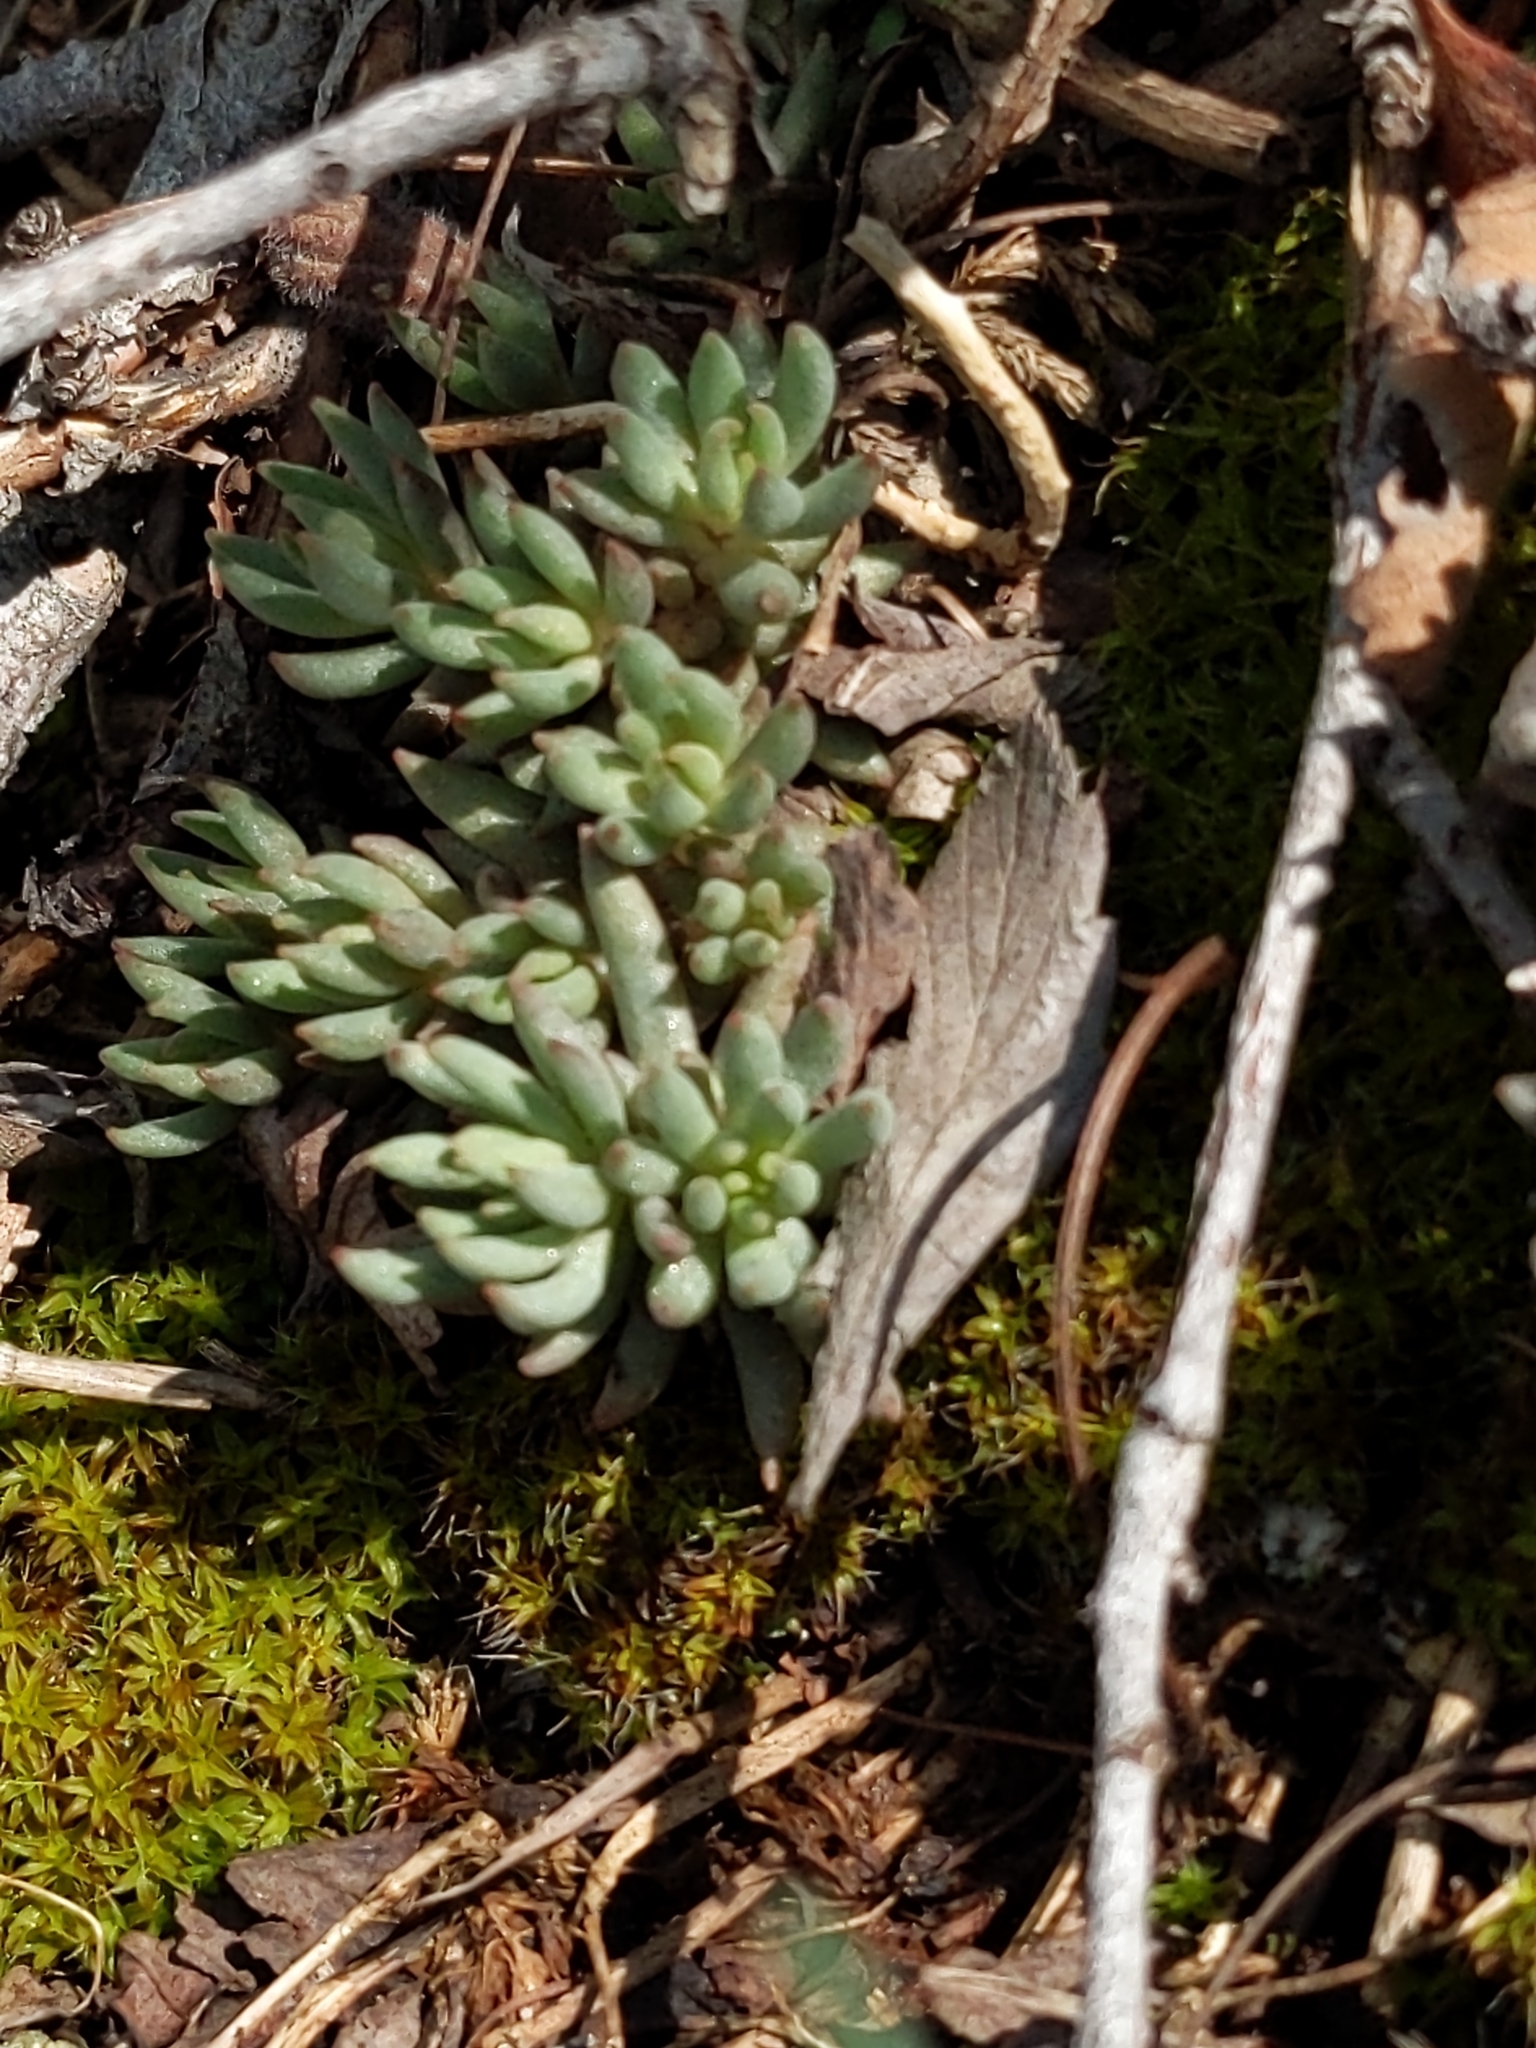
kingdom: Plantae
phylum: Tracheophyta
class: Magnoliopsida
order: Saxifragales
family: Crassulaceae
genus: Sedum
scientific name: Sedum lanceolatum
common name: Common stonecrop
